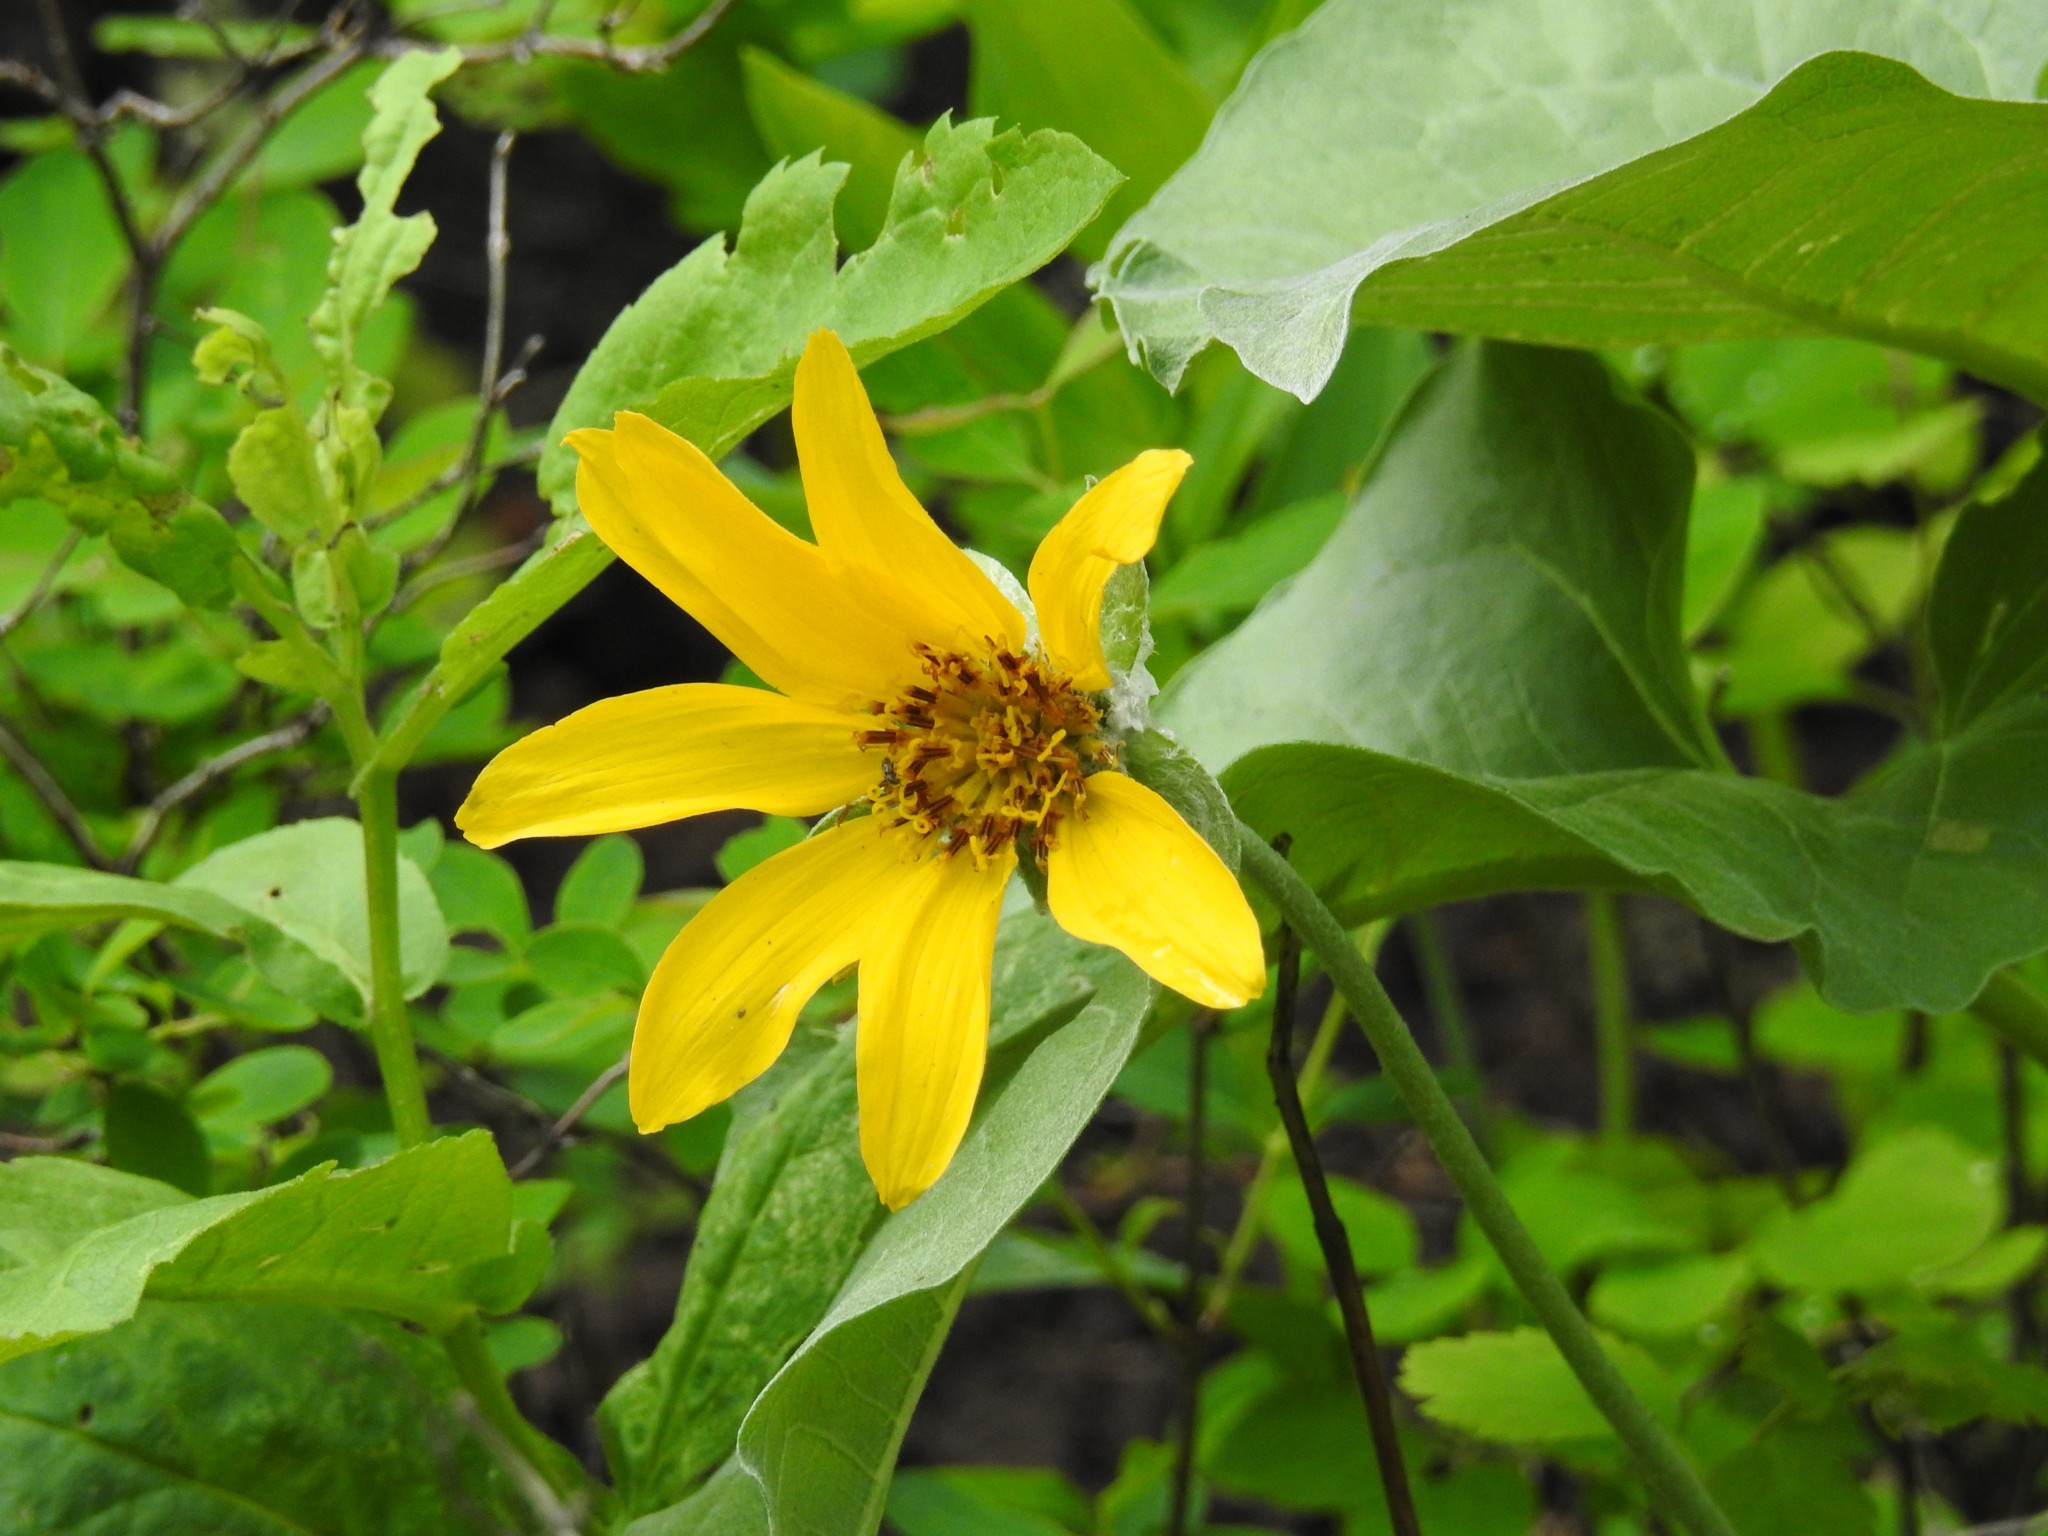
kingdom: Plantae
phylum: Tracheophyta
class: Magnoliopsida
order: Asterales
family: Asteraceae
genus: Wyethia
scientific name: Wyethia sagittata
